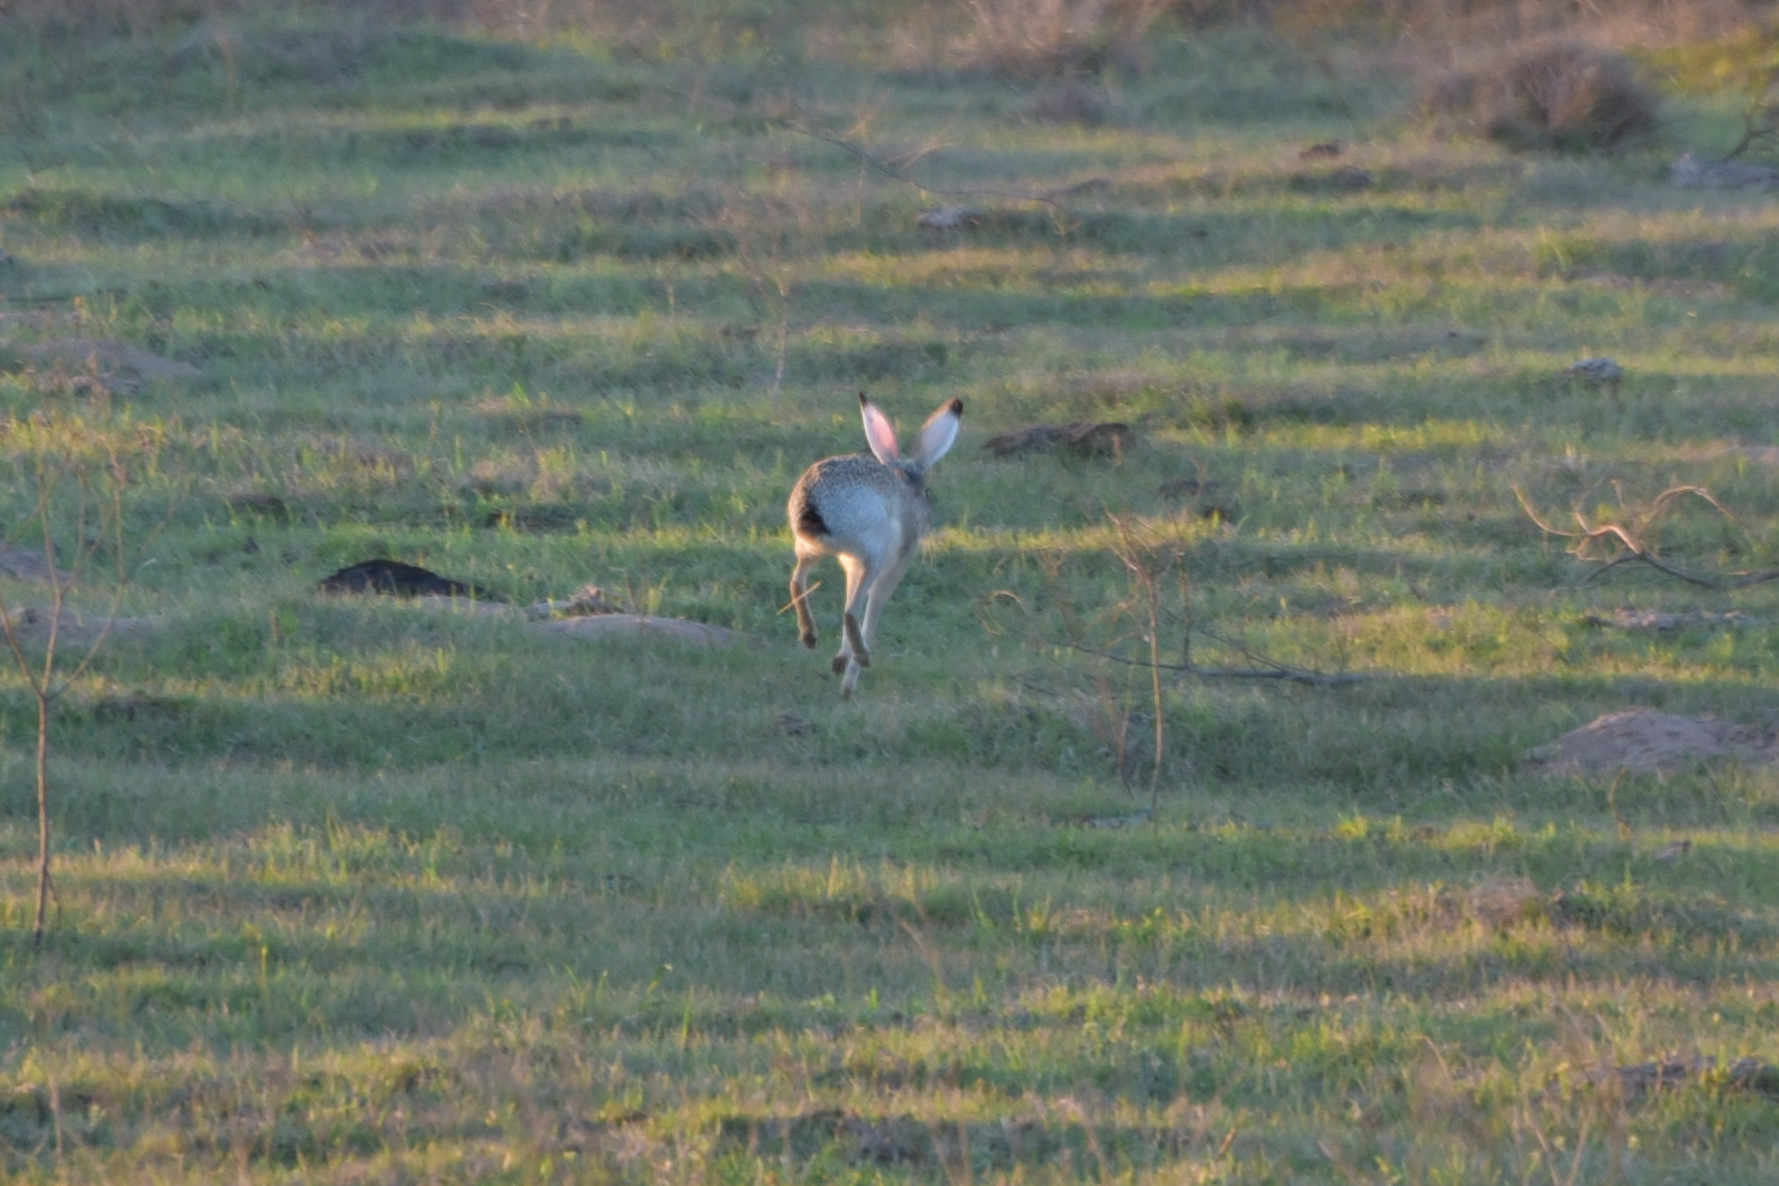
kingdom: Animalia
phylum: Chordata
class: Mammalia
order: Lagomorpha
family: Leporidae
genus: Lepus
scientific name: Lepus californicus
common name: Black-tailed jackrabbit
